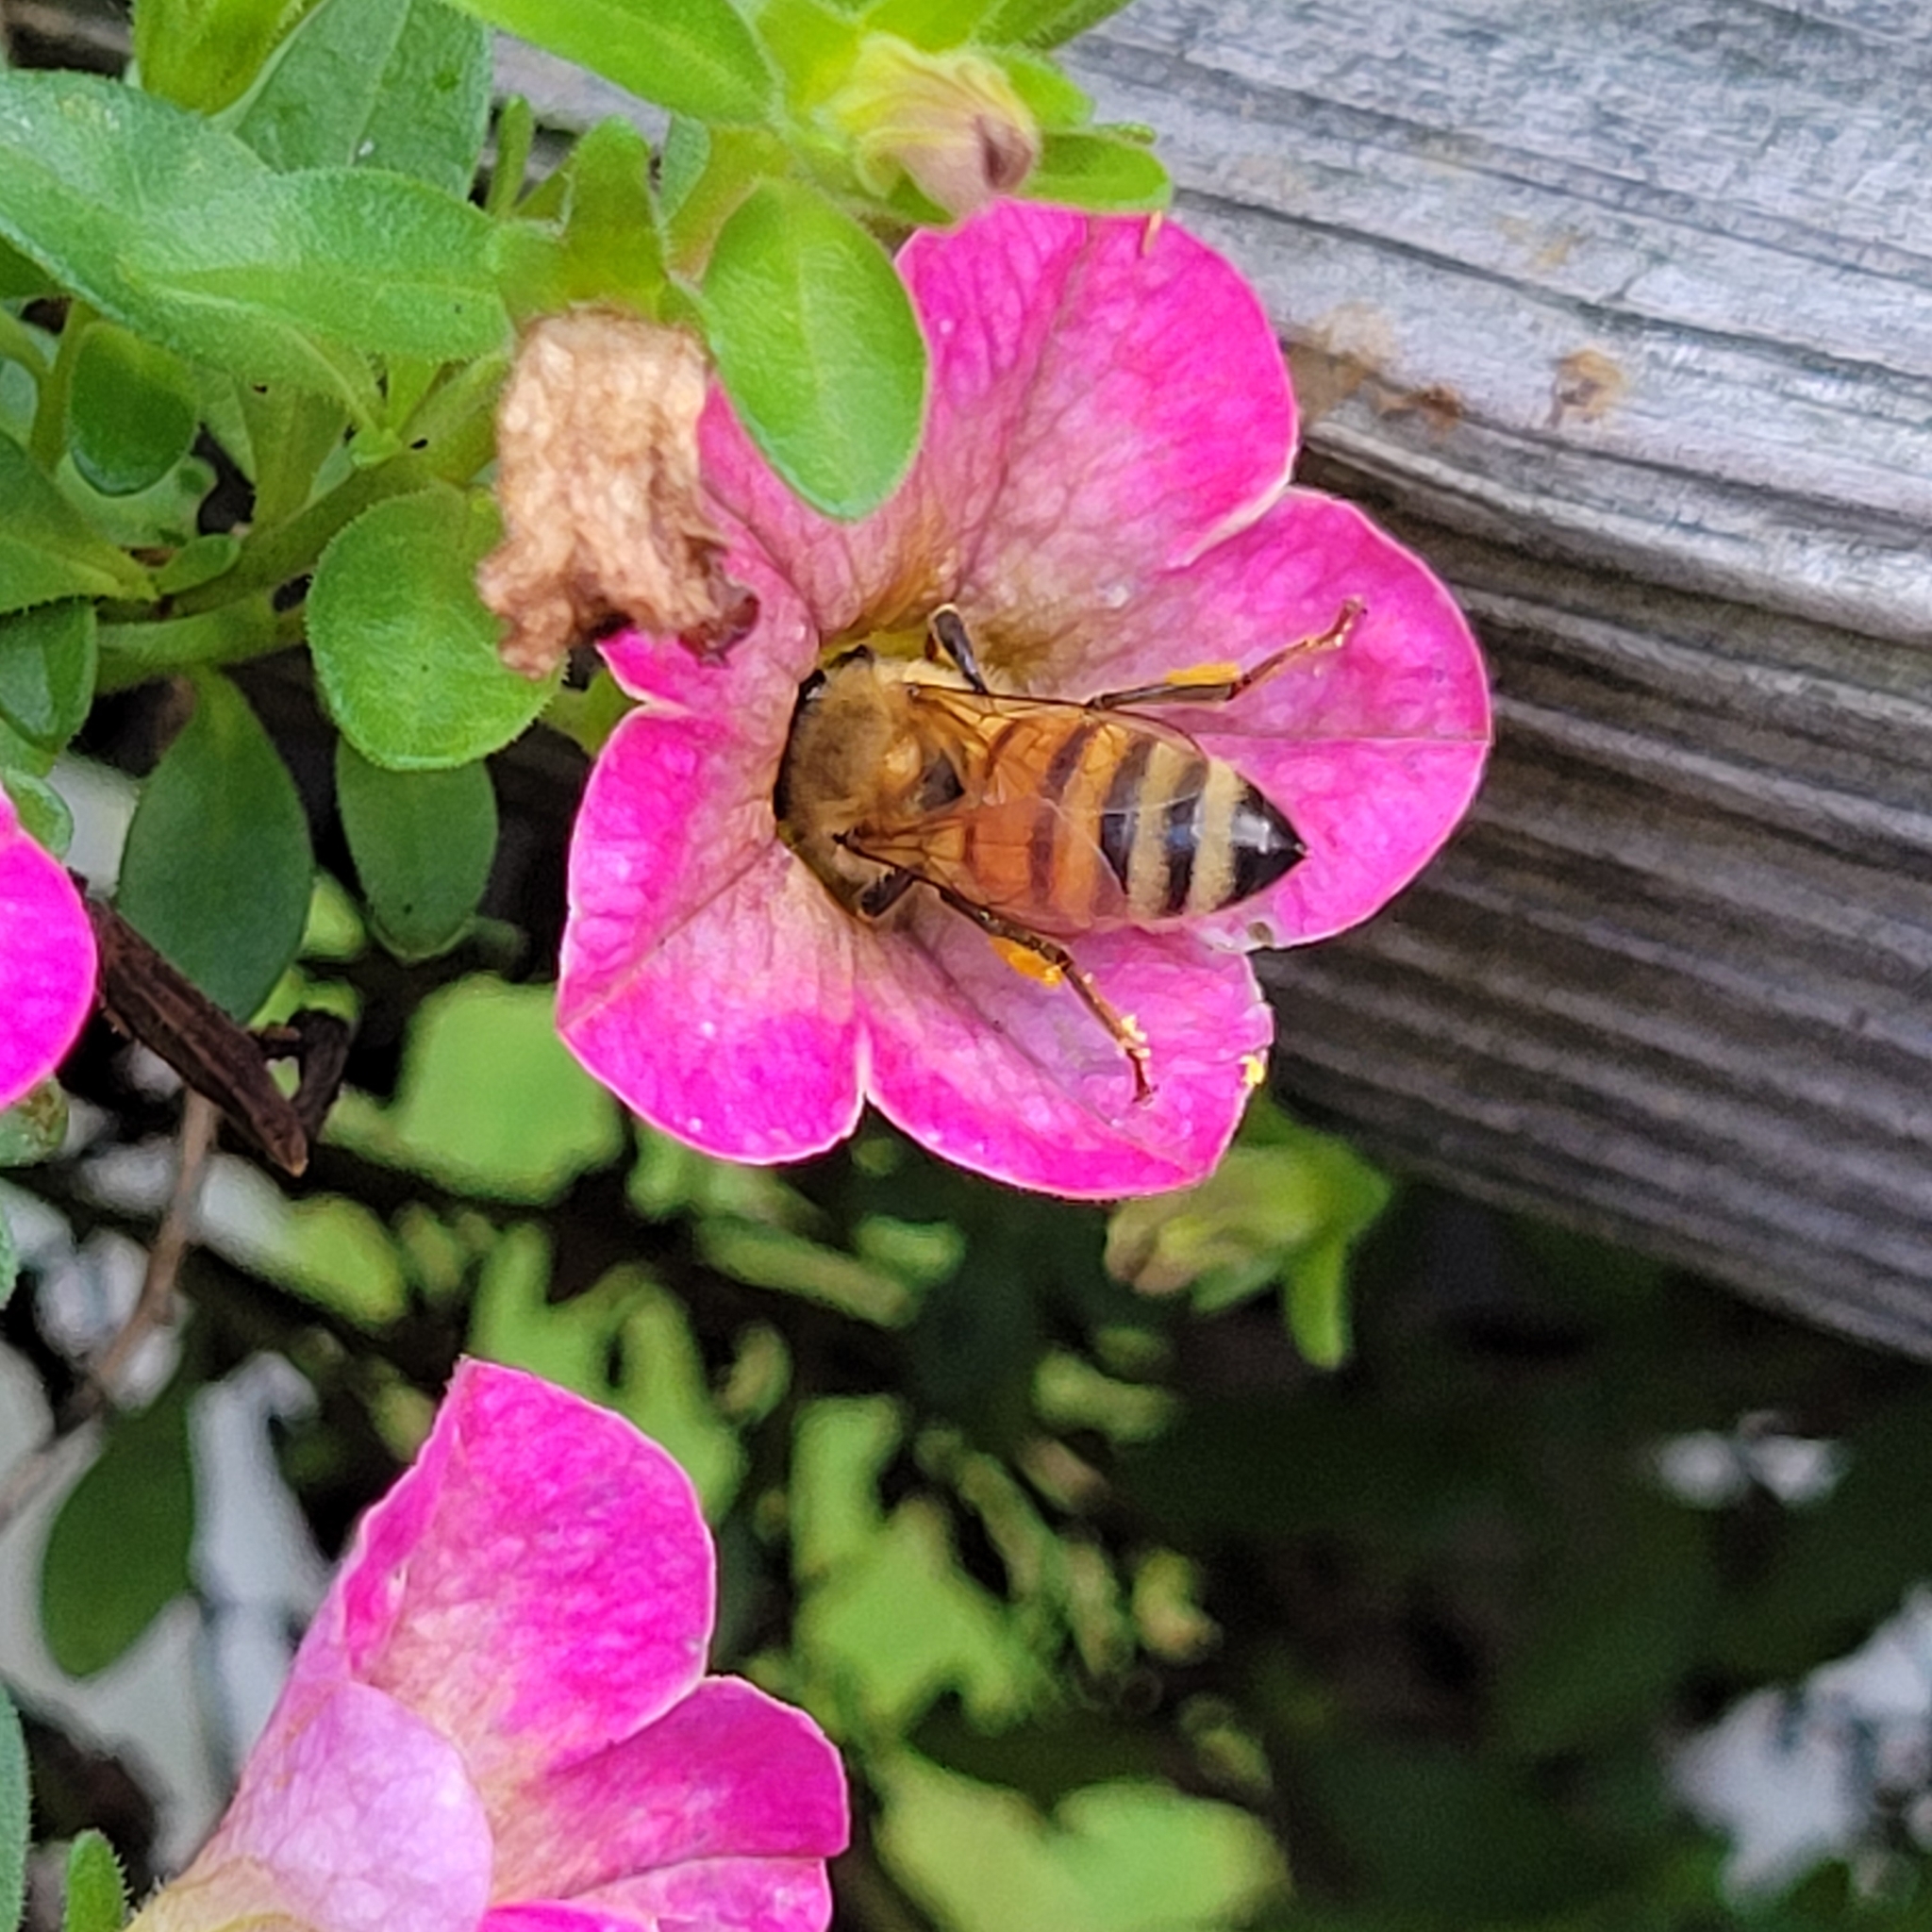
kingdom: Animalia
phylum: Arthropoda
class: Insecta
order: Hymenoptera
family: Apidae
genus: Apis
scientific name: Apis mellifera
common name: Honey bee
